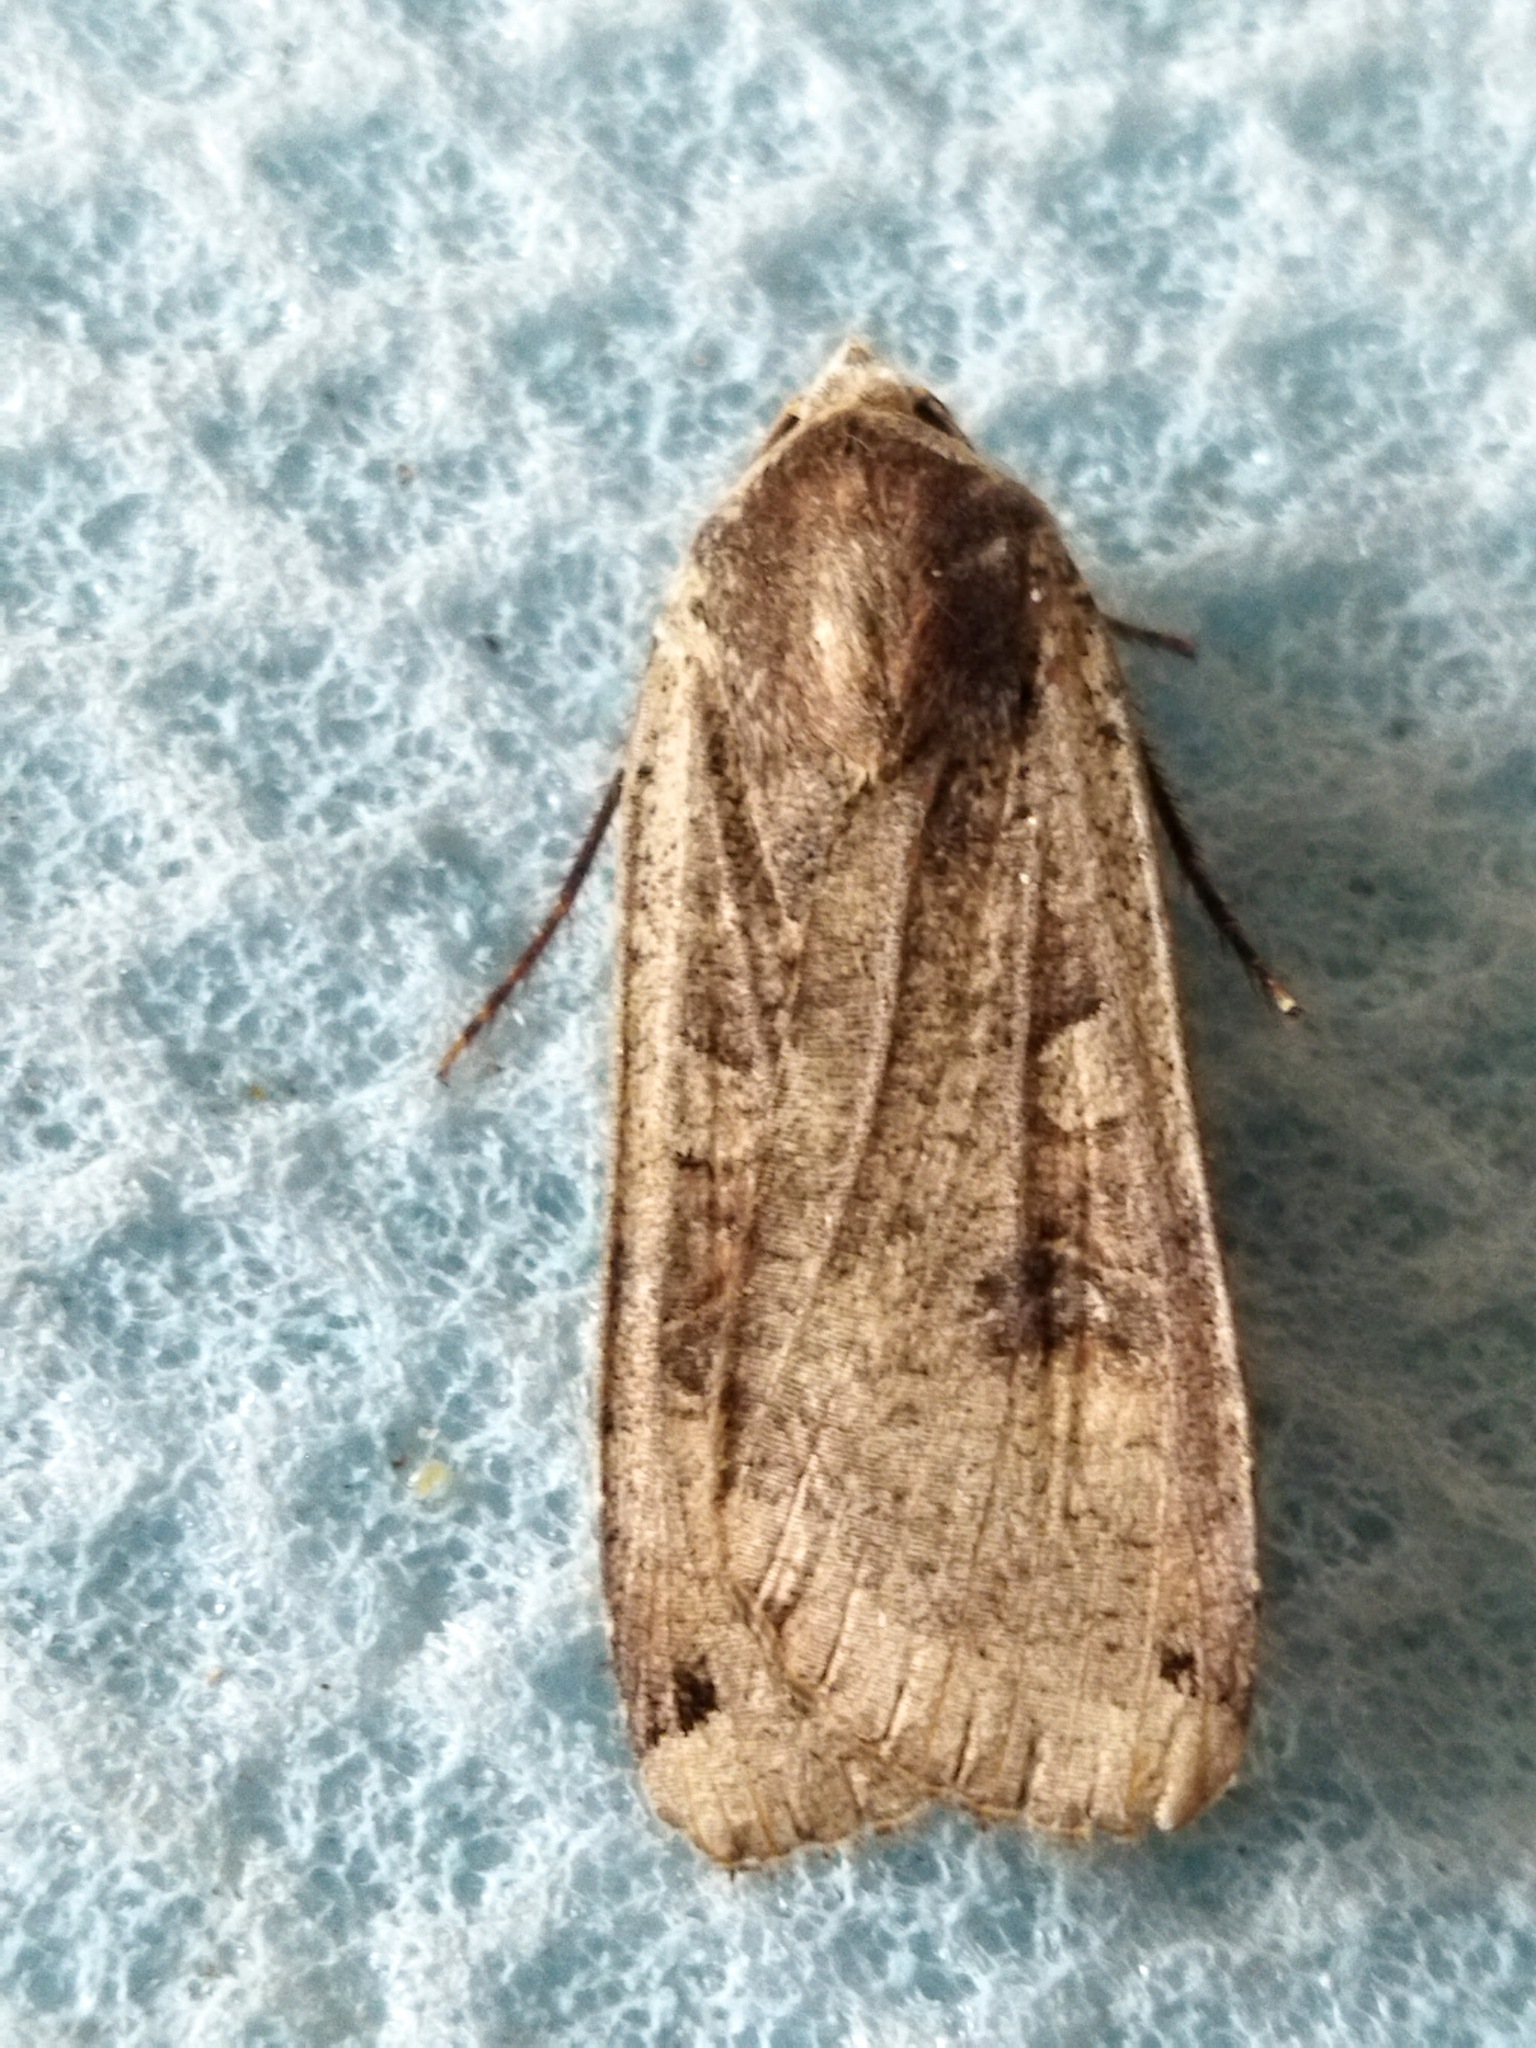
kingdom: Animalia
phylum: Arthropoda
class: Insecta
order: Lepidoptera
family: Noctuidae
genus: Noctua
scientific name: Noctua pronuba
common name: Large yellow underwing
